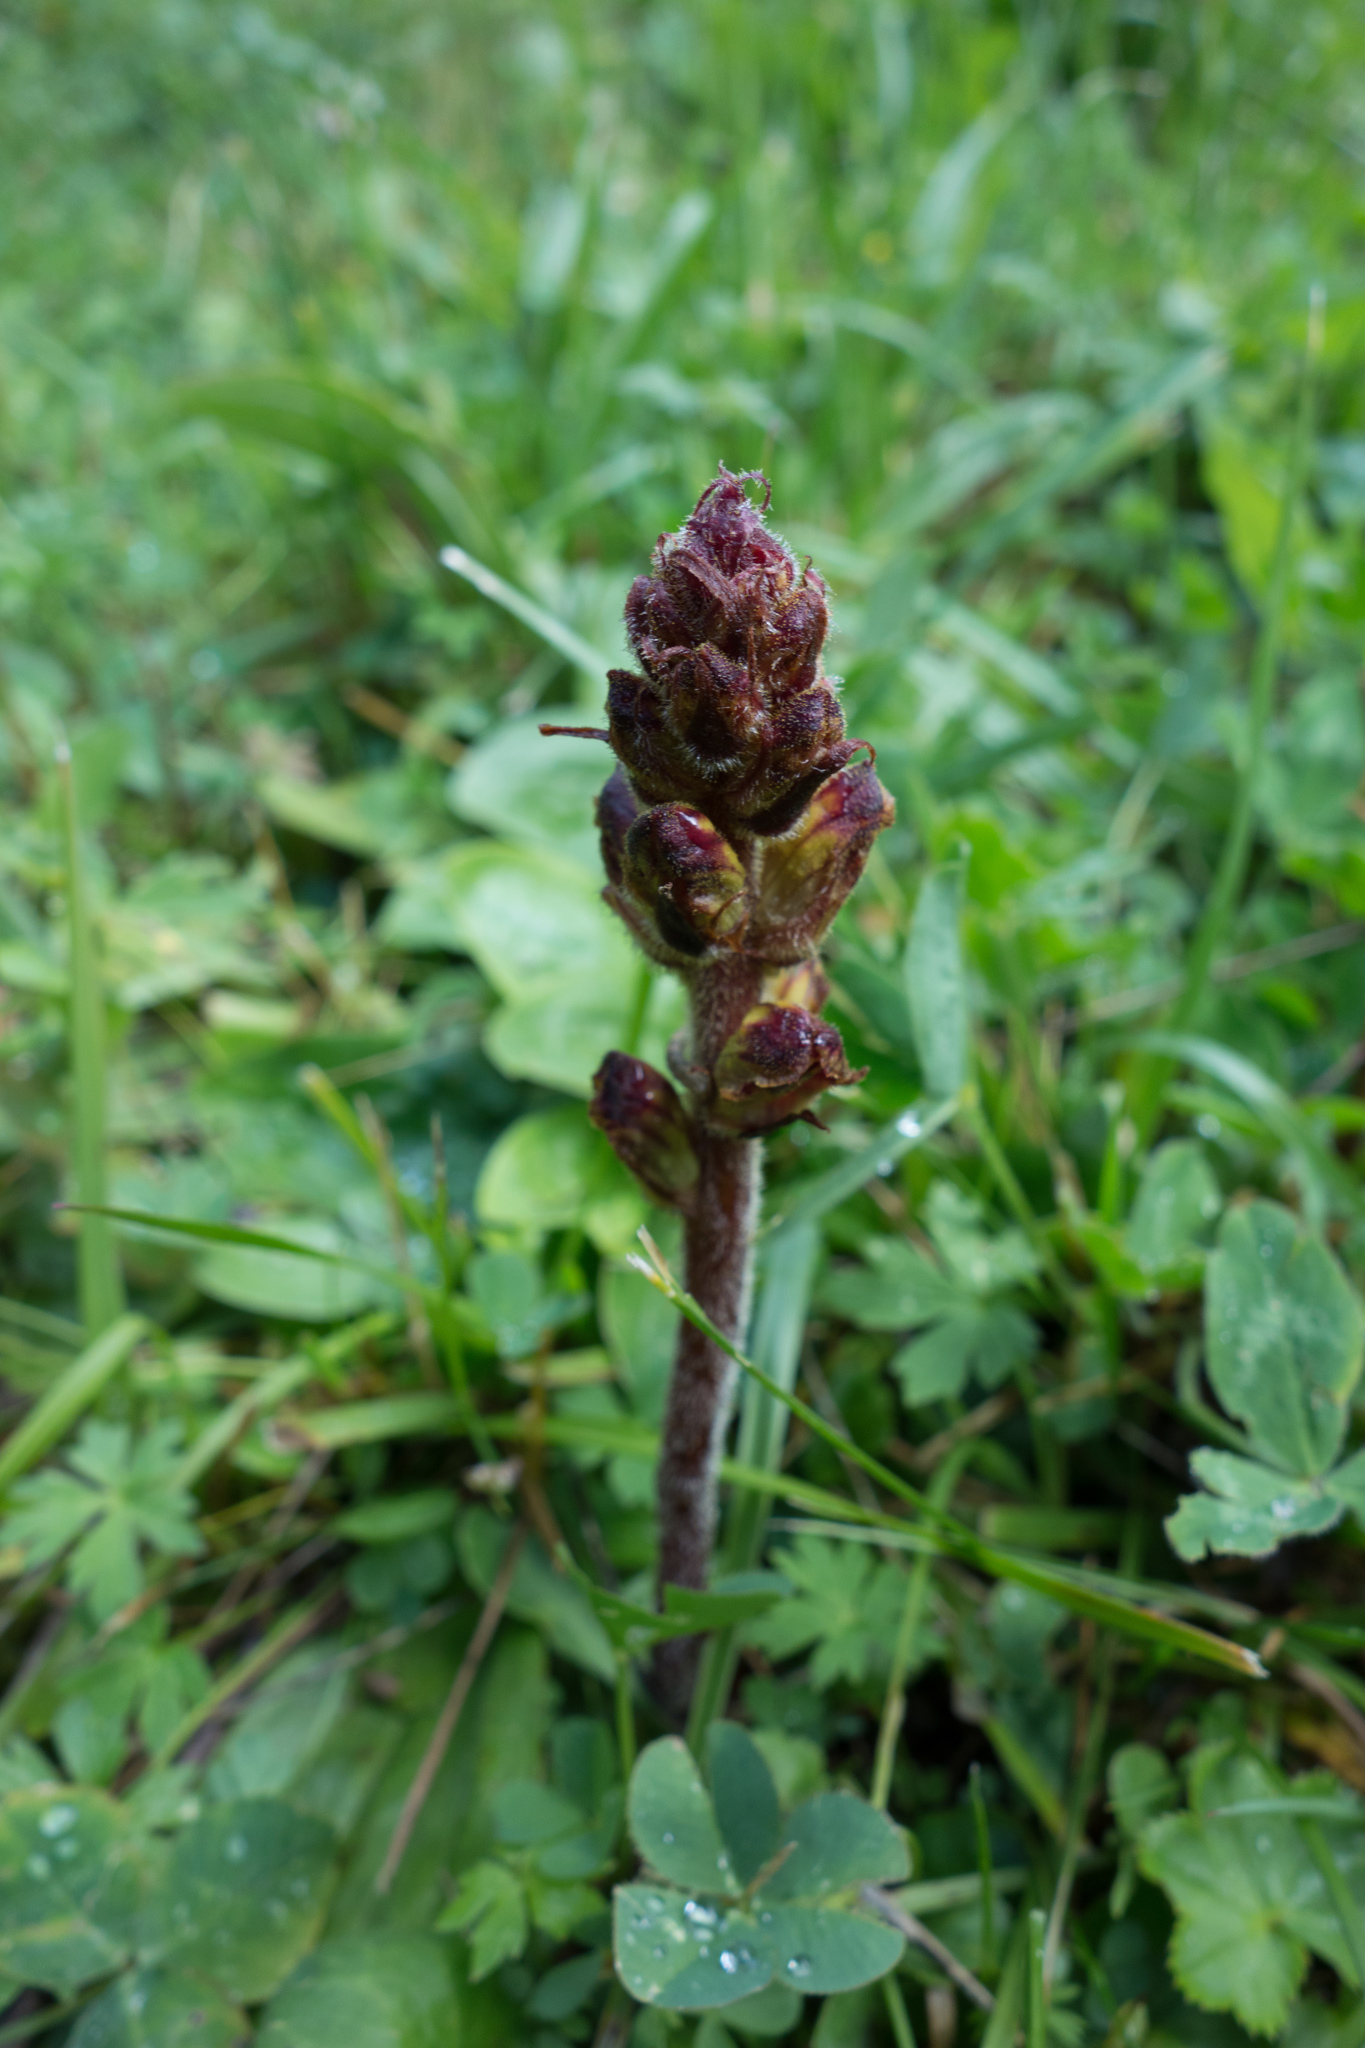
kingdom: Plantae
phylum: Tracheophyta
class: Magnoliopsida
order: Lamiales
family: Orobanchaceae
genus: Orobanche
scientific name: Orobanche gracilis
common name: Slender broomrape
